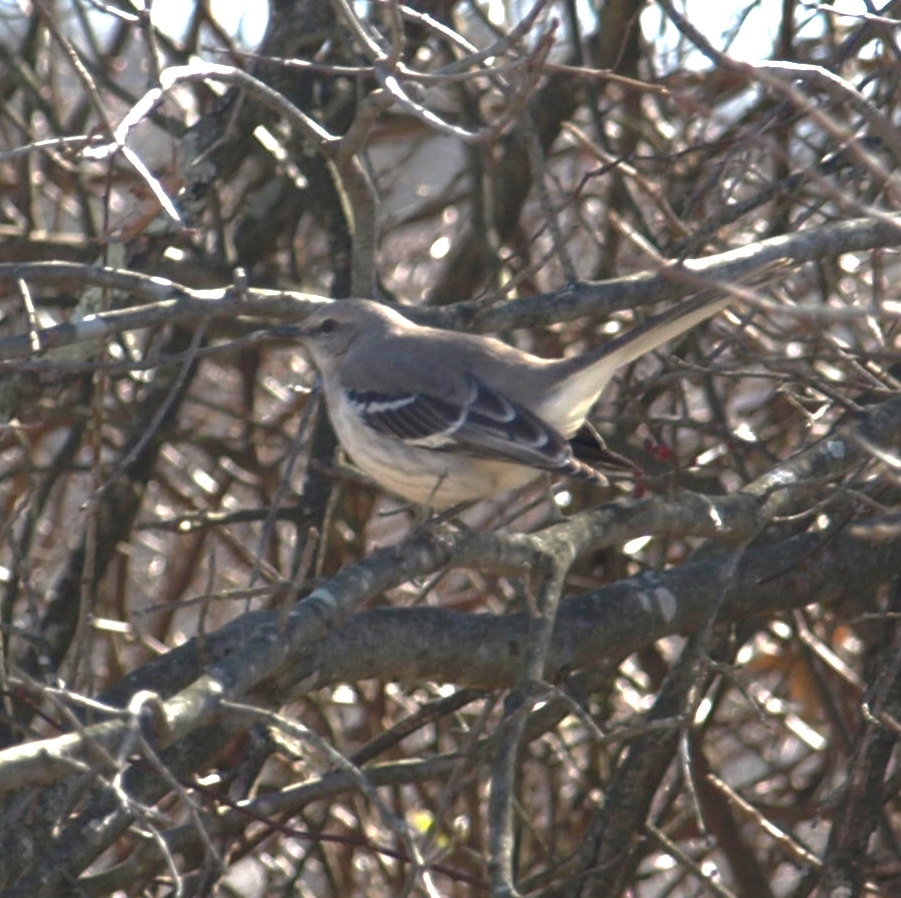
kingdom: Animalia
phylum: Chordata
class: Aves
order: Passeriformes
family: Mimidae
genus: Mimus
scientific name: Mimus polyglottos
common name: Northern mockingbird
